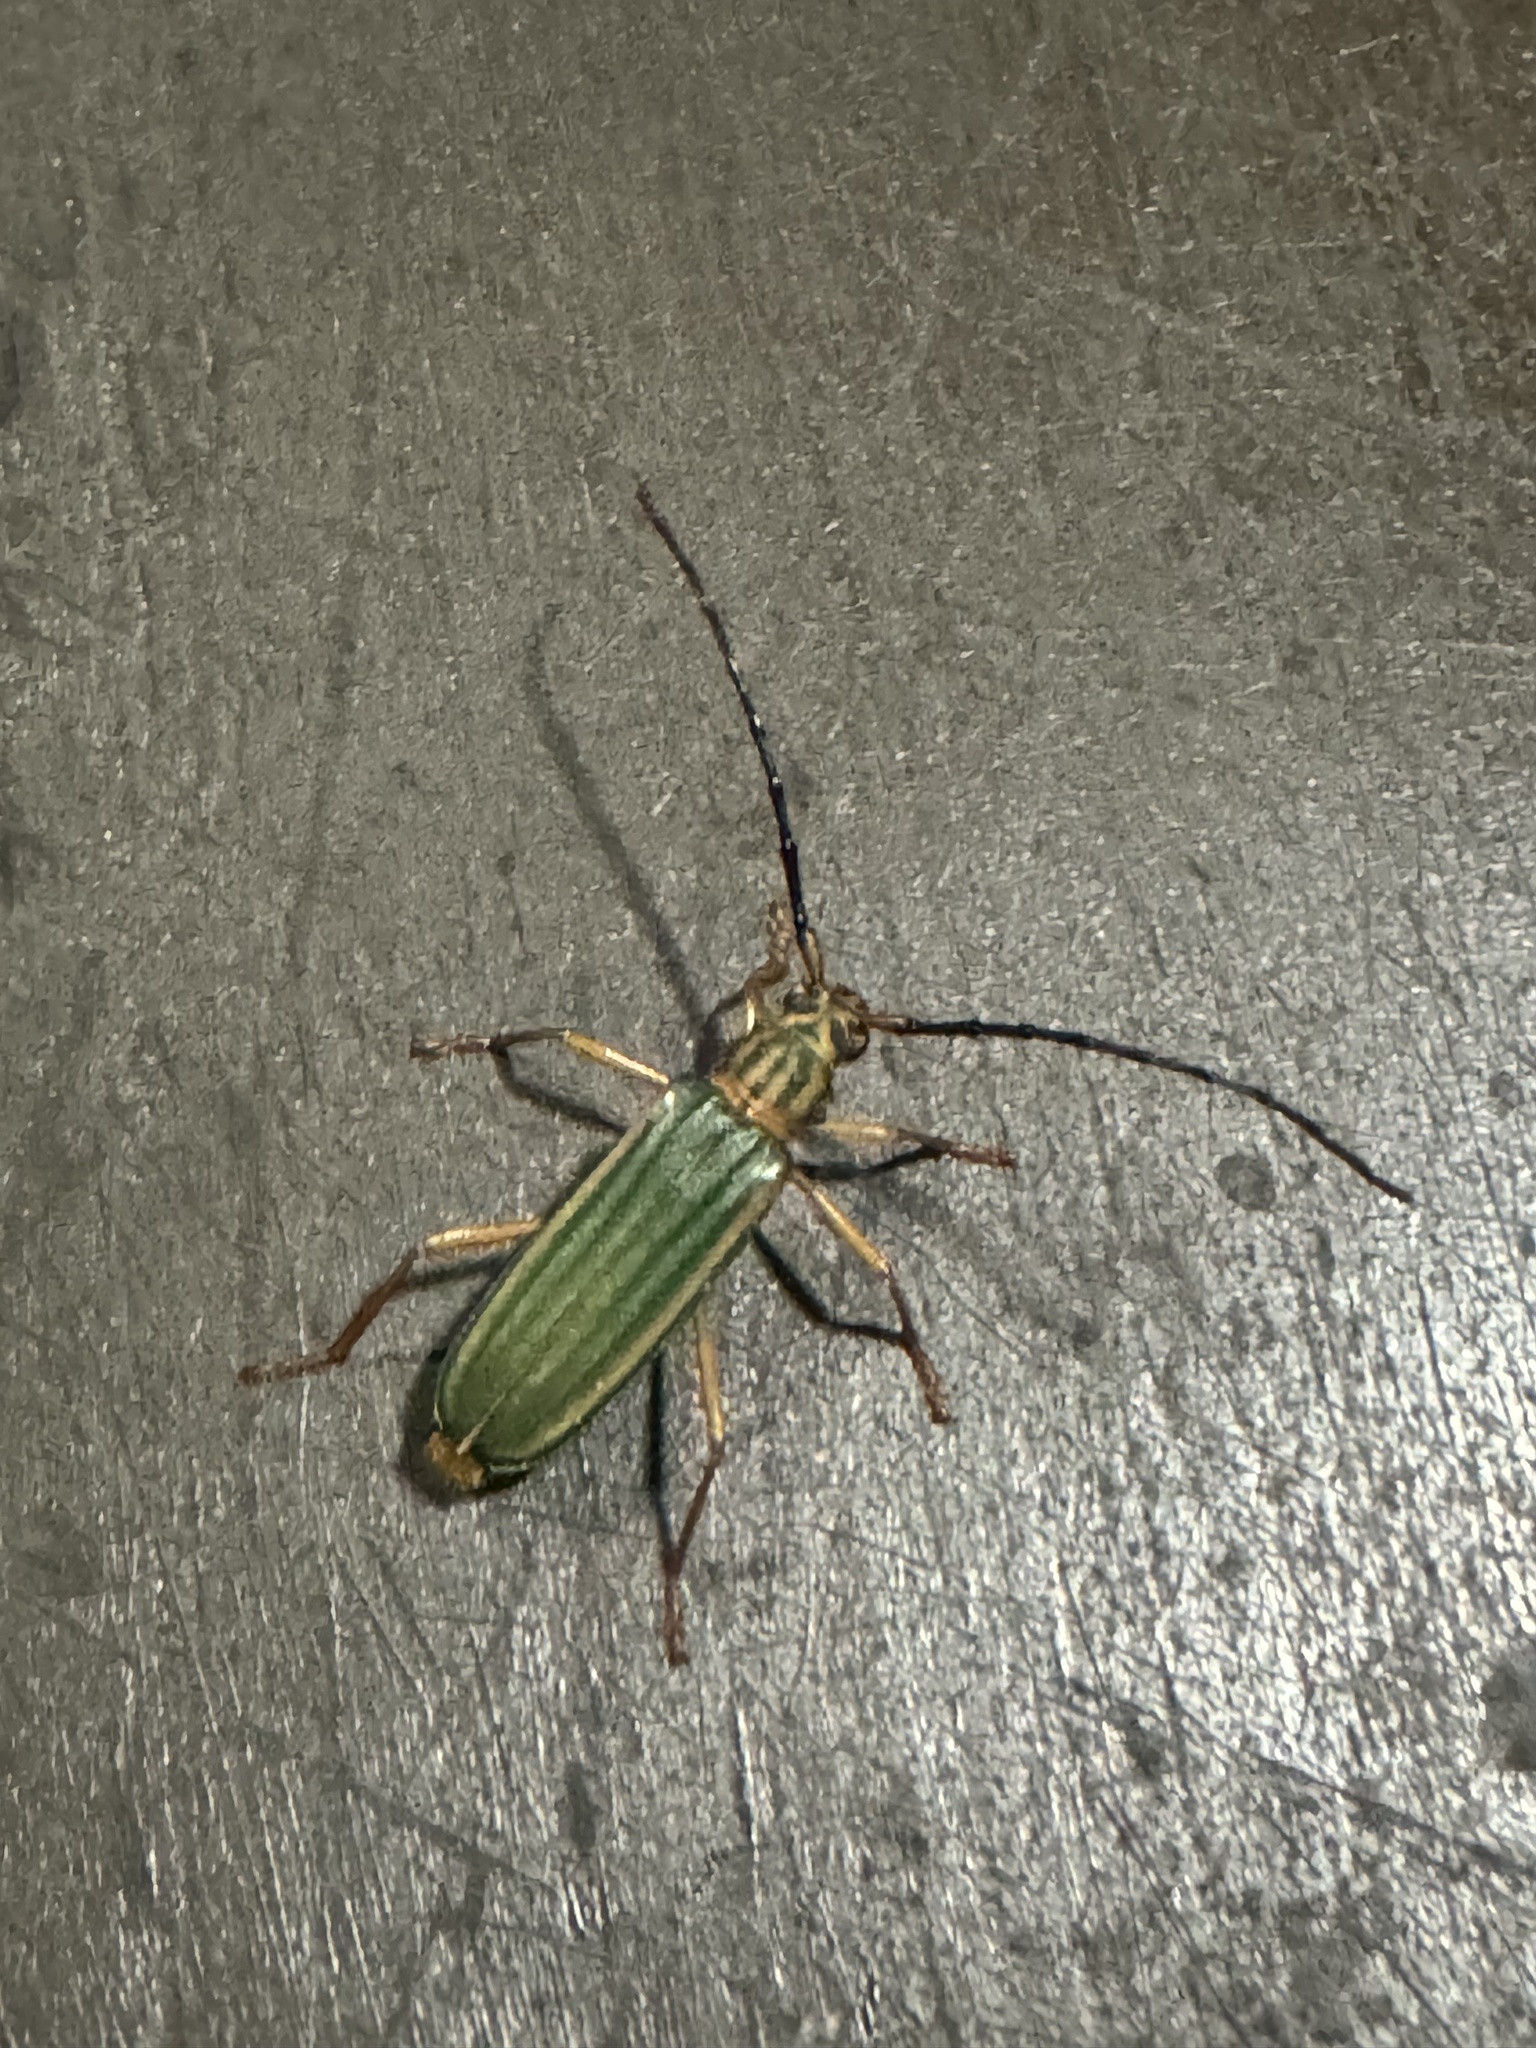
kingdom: Animalia
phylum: Arthropoda
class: Insecta
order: Coleoptera
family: Cerambycidae
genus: Chlorida
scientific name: Chlorida festiva
